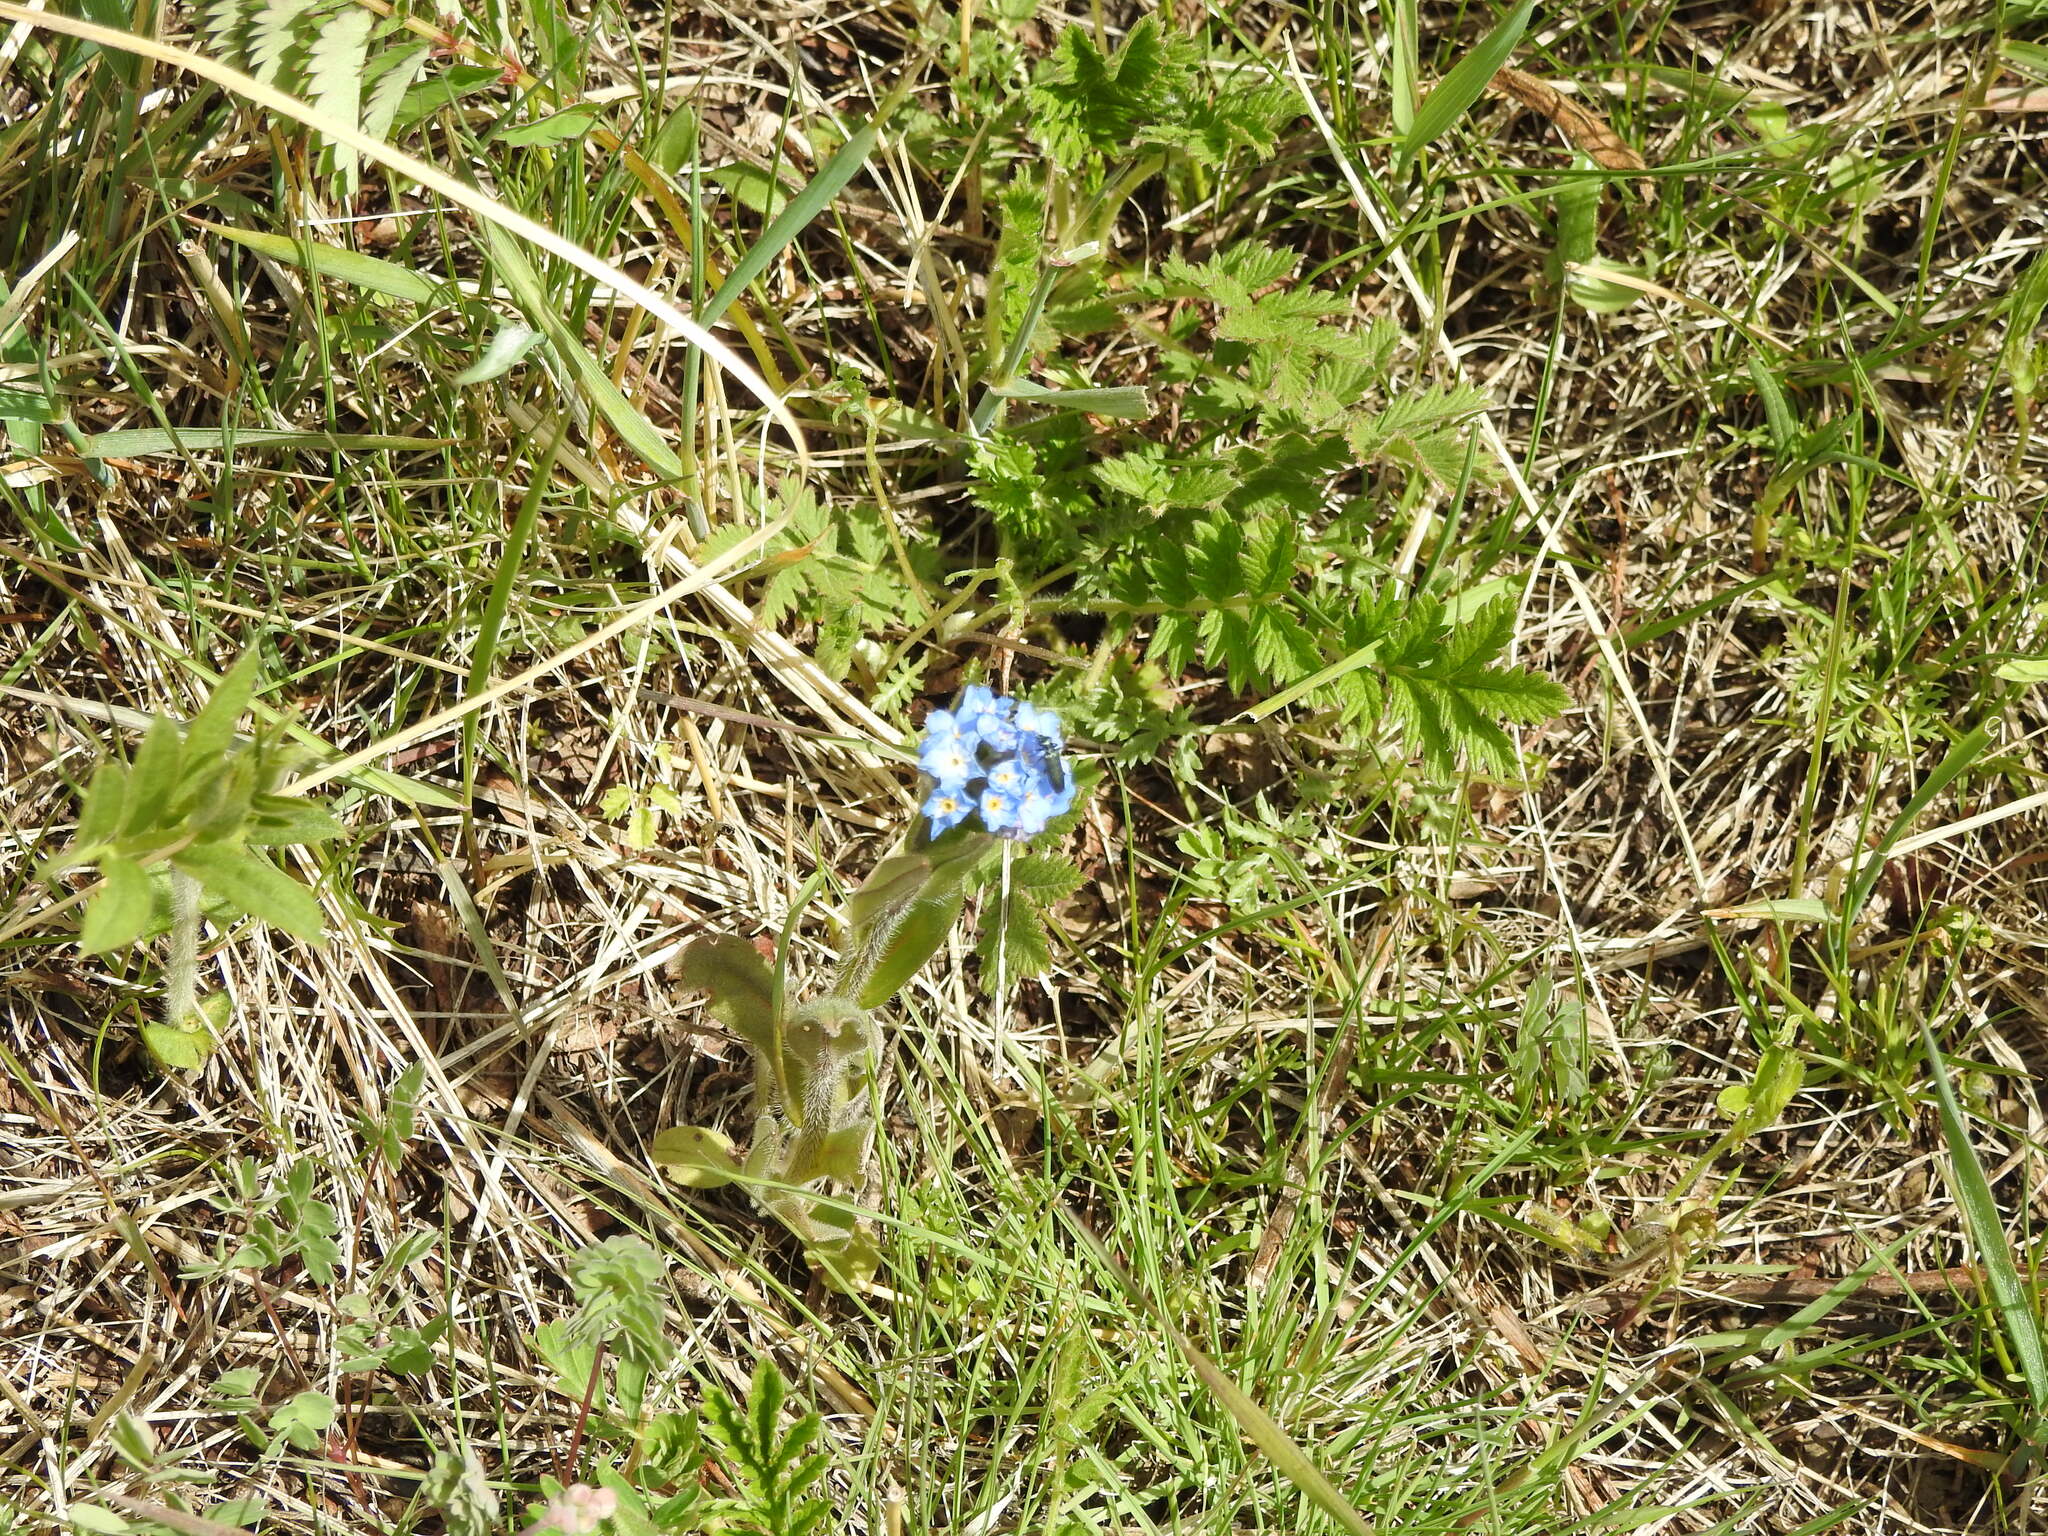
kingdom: Plantae
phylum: Tracheophyta
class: Magnoliopsida
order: Boraginales
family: Boraginaceae
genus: Myosotis
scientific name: Myosotis imitata
